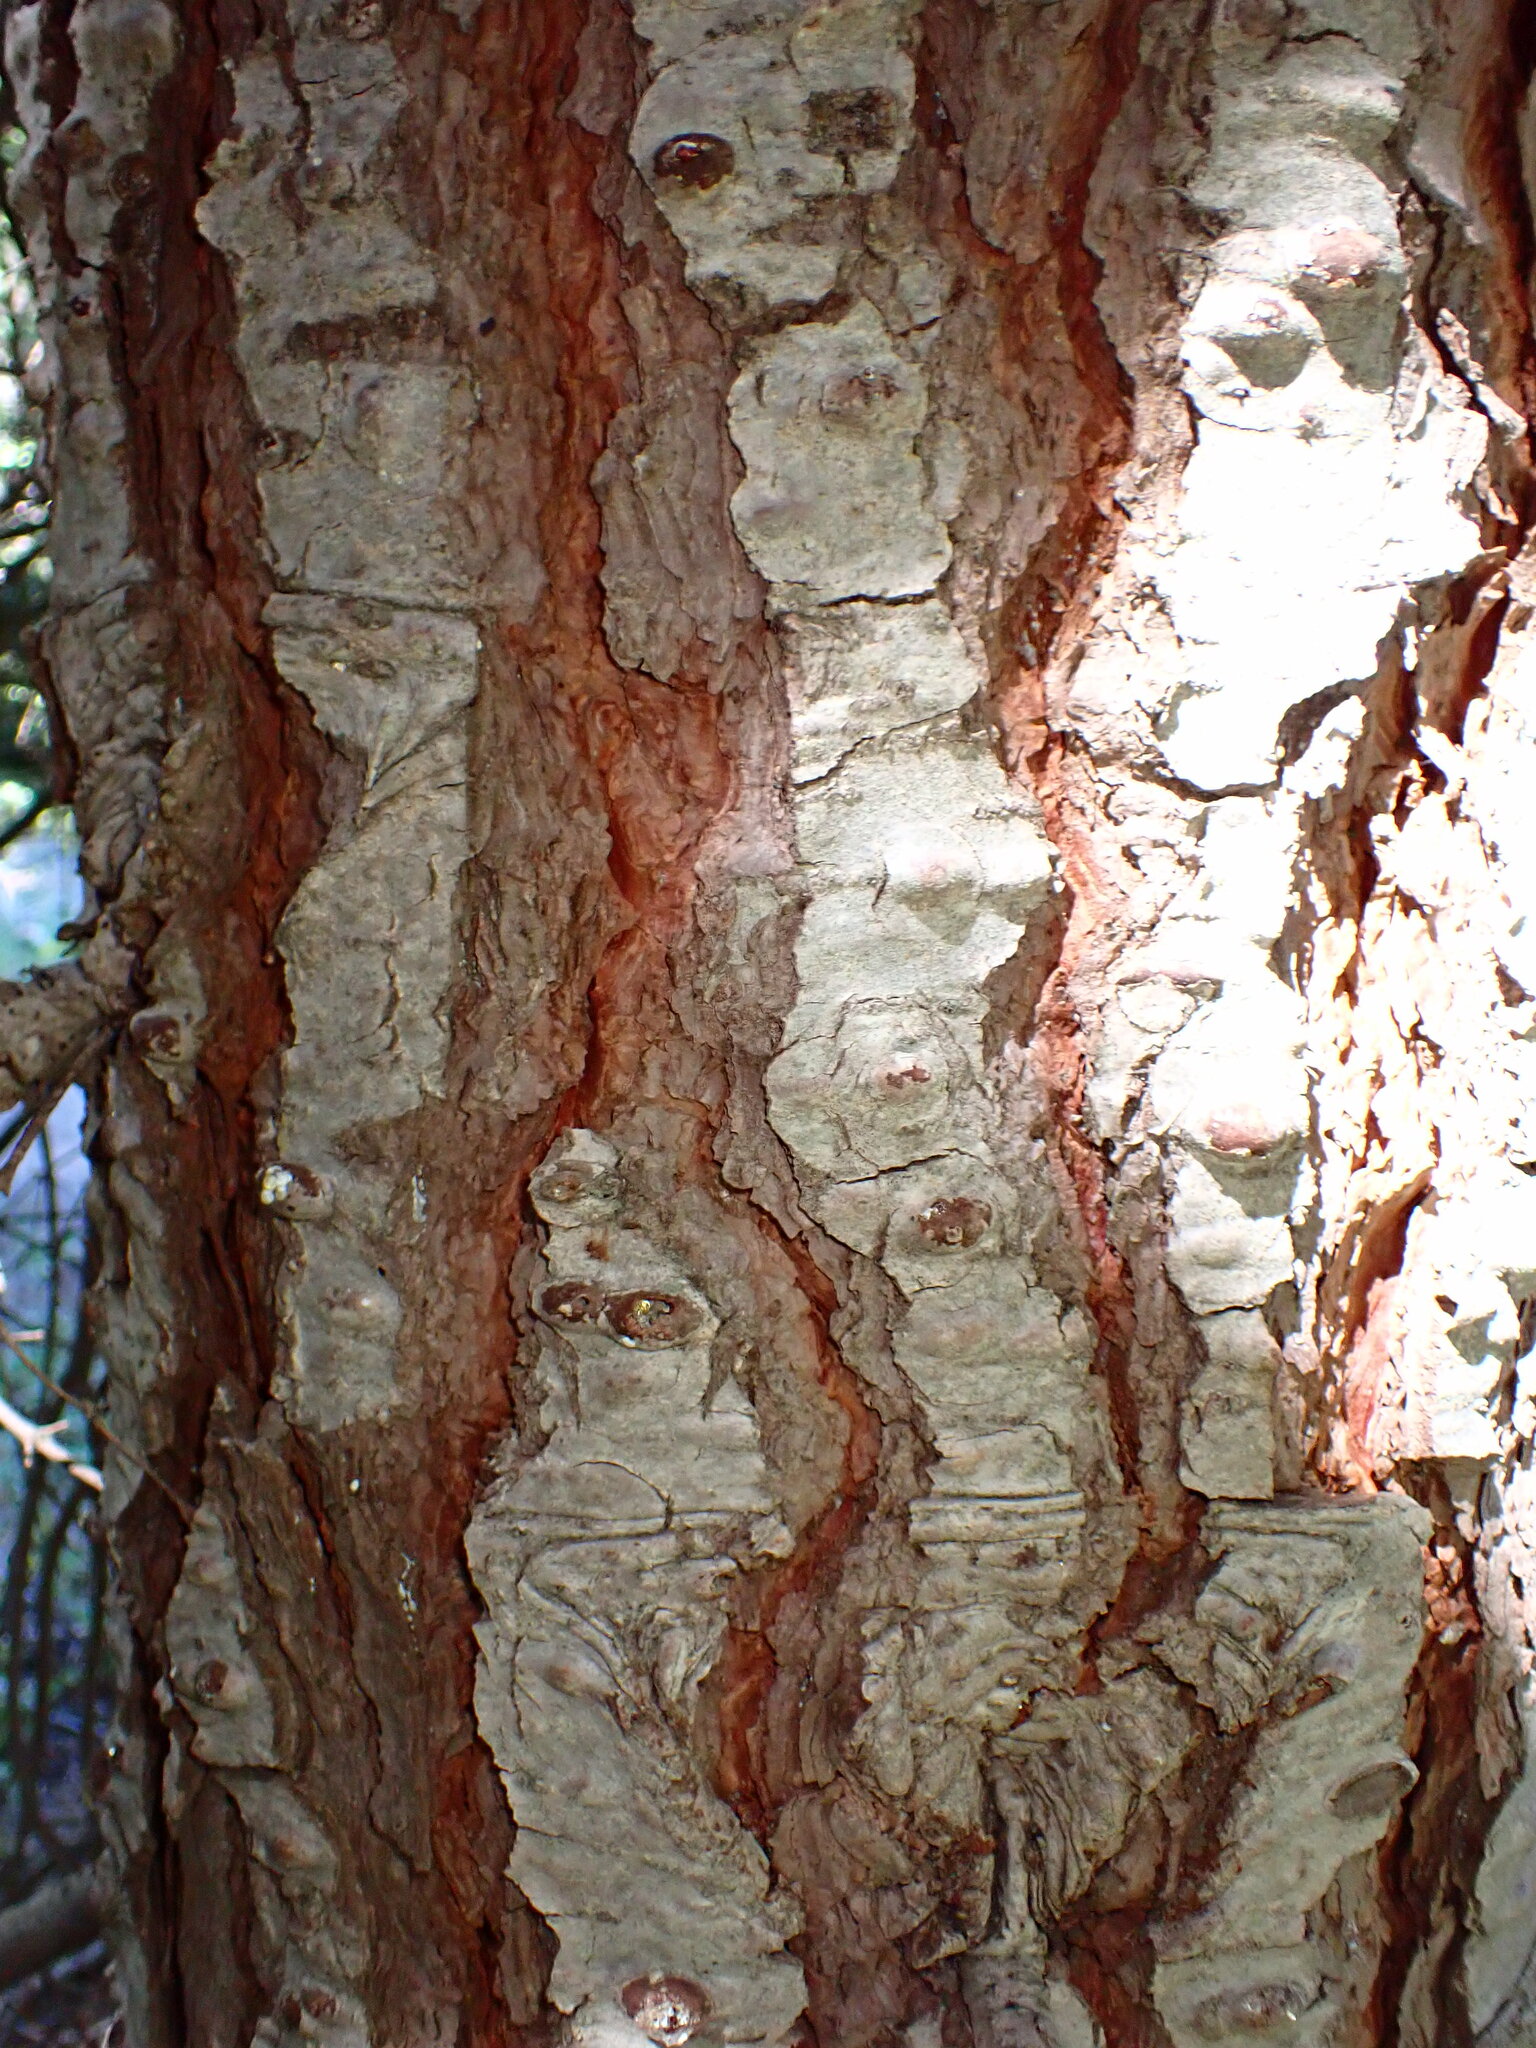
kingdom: Plantae
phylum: Tracheophyta
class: Pinopsida
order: Pinales
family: Pinaceae
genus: Abies
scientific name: Abies magnifica bis
